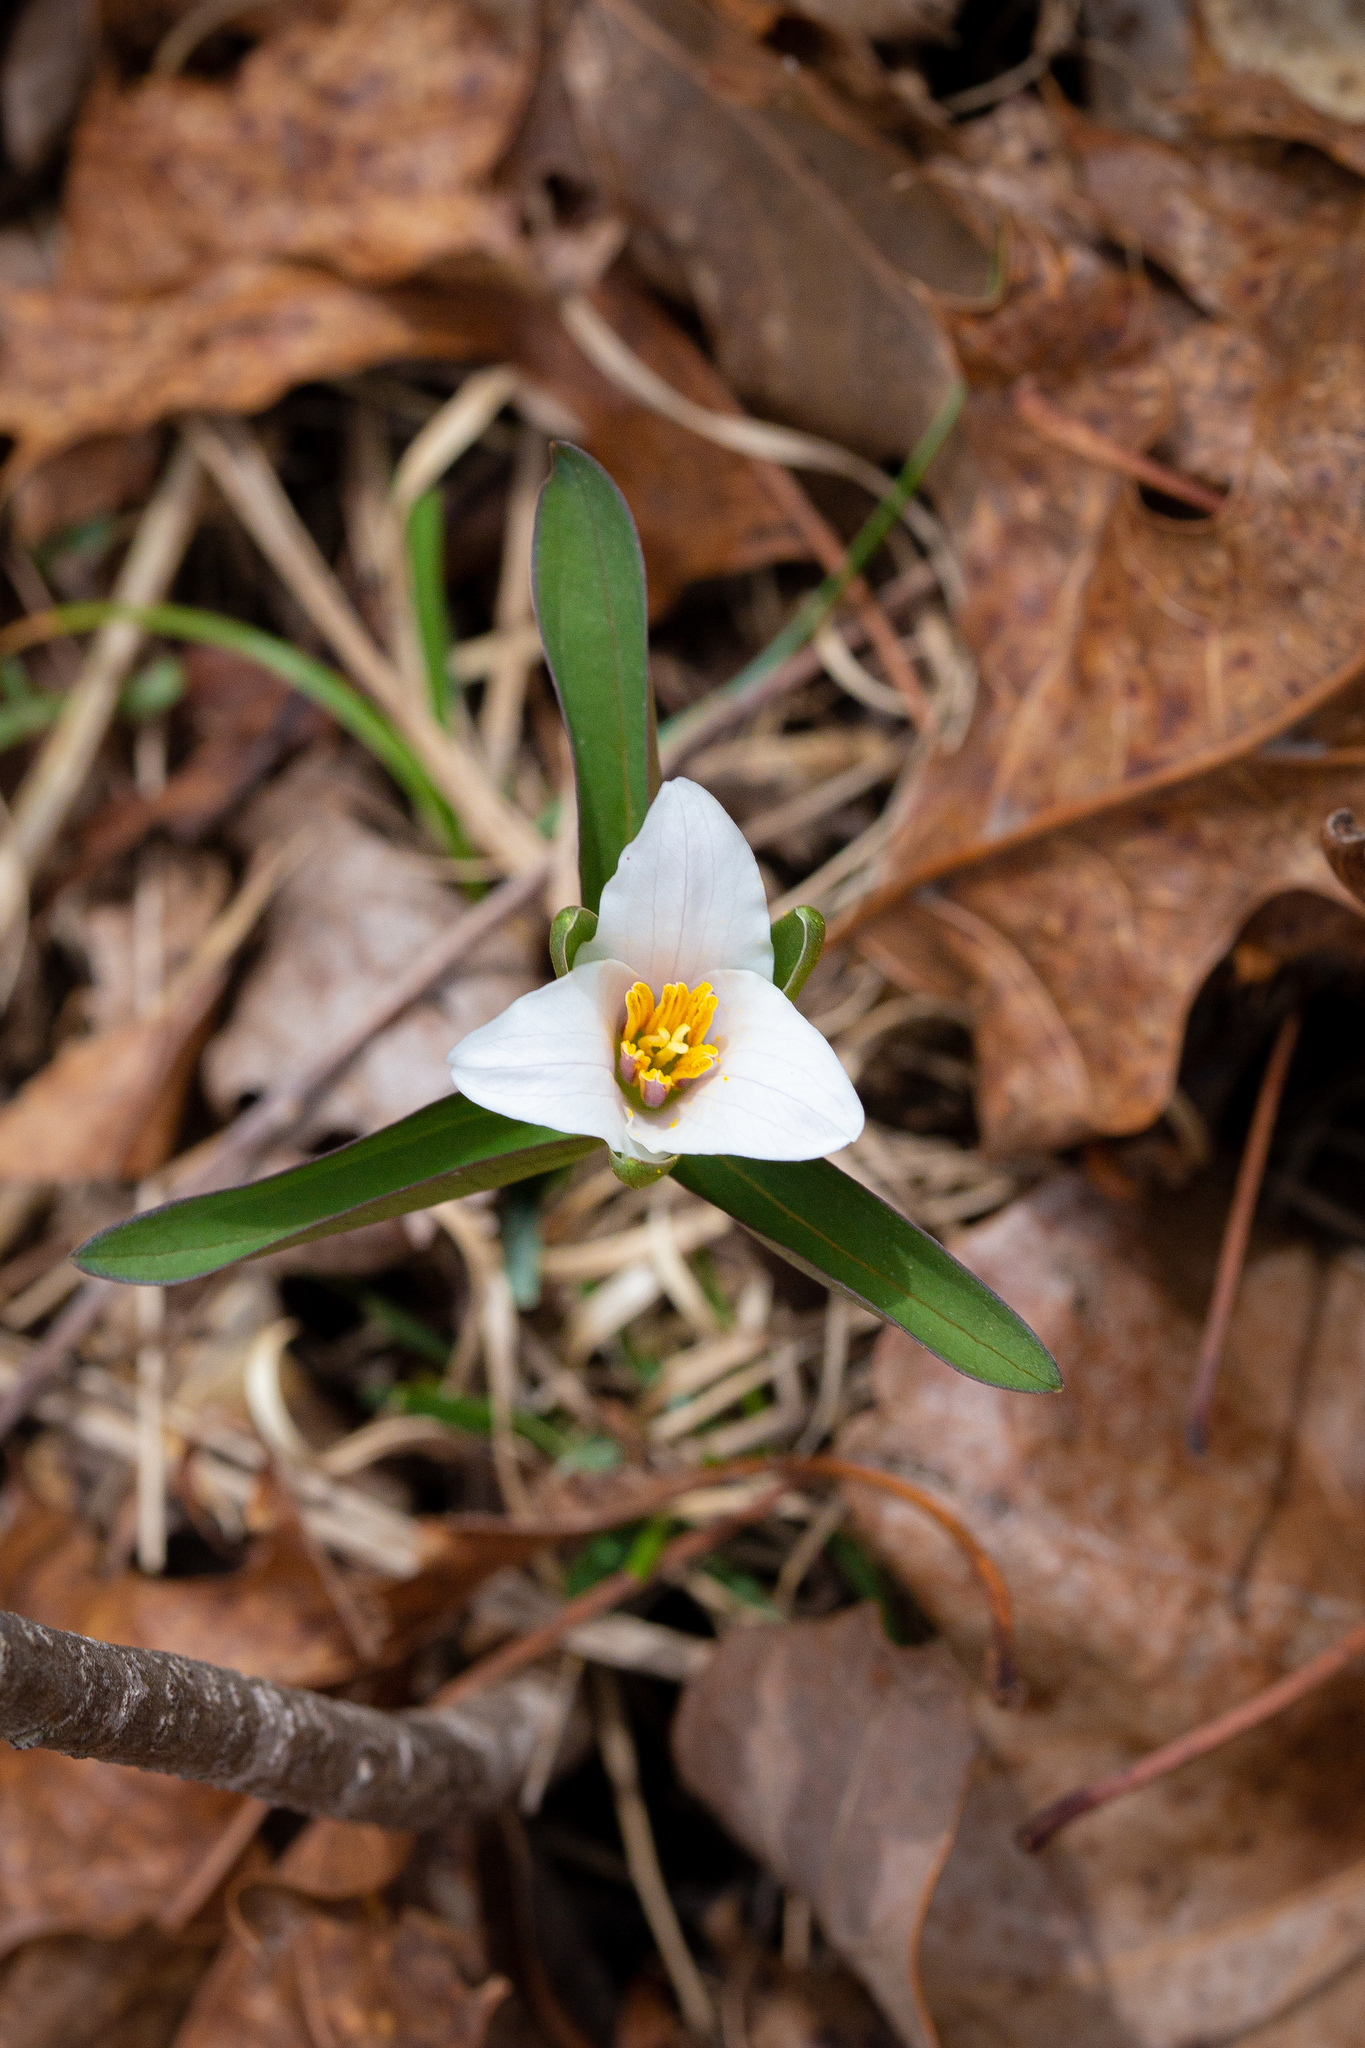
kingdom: Plantae
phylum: Tracheophyta
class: Liliopsida
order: Liliales
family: Melanthiaceae
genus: Trillium
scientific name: Trillium pusillum
